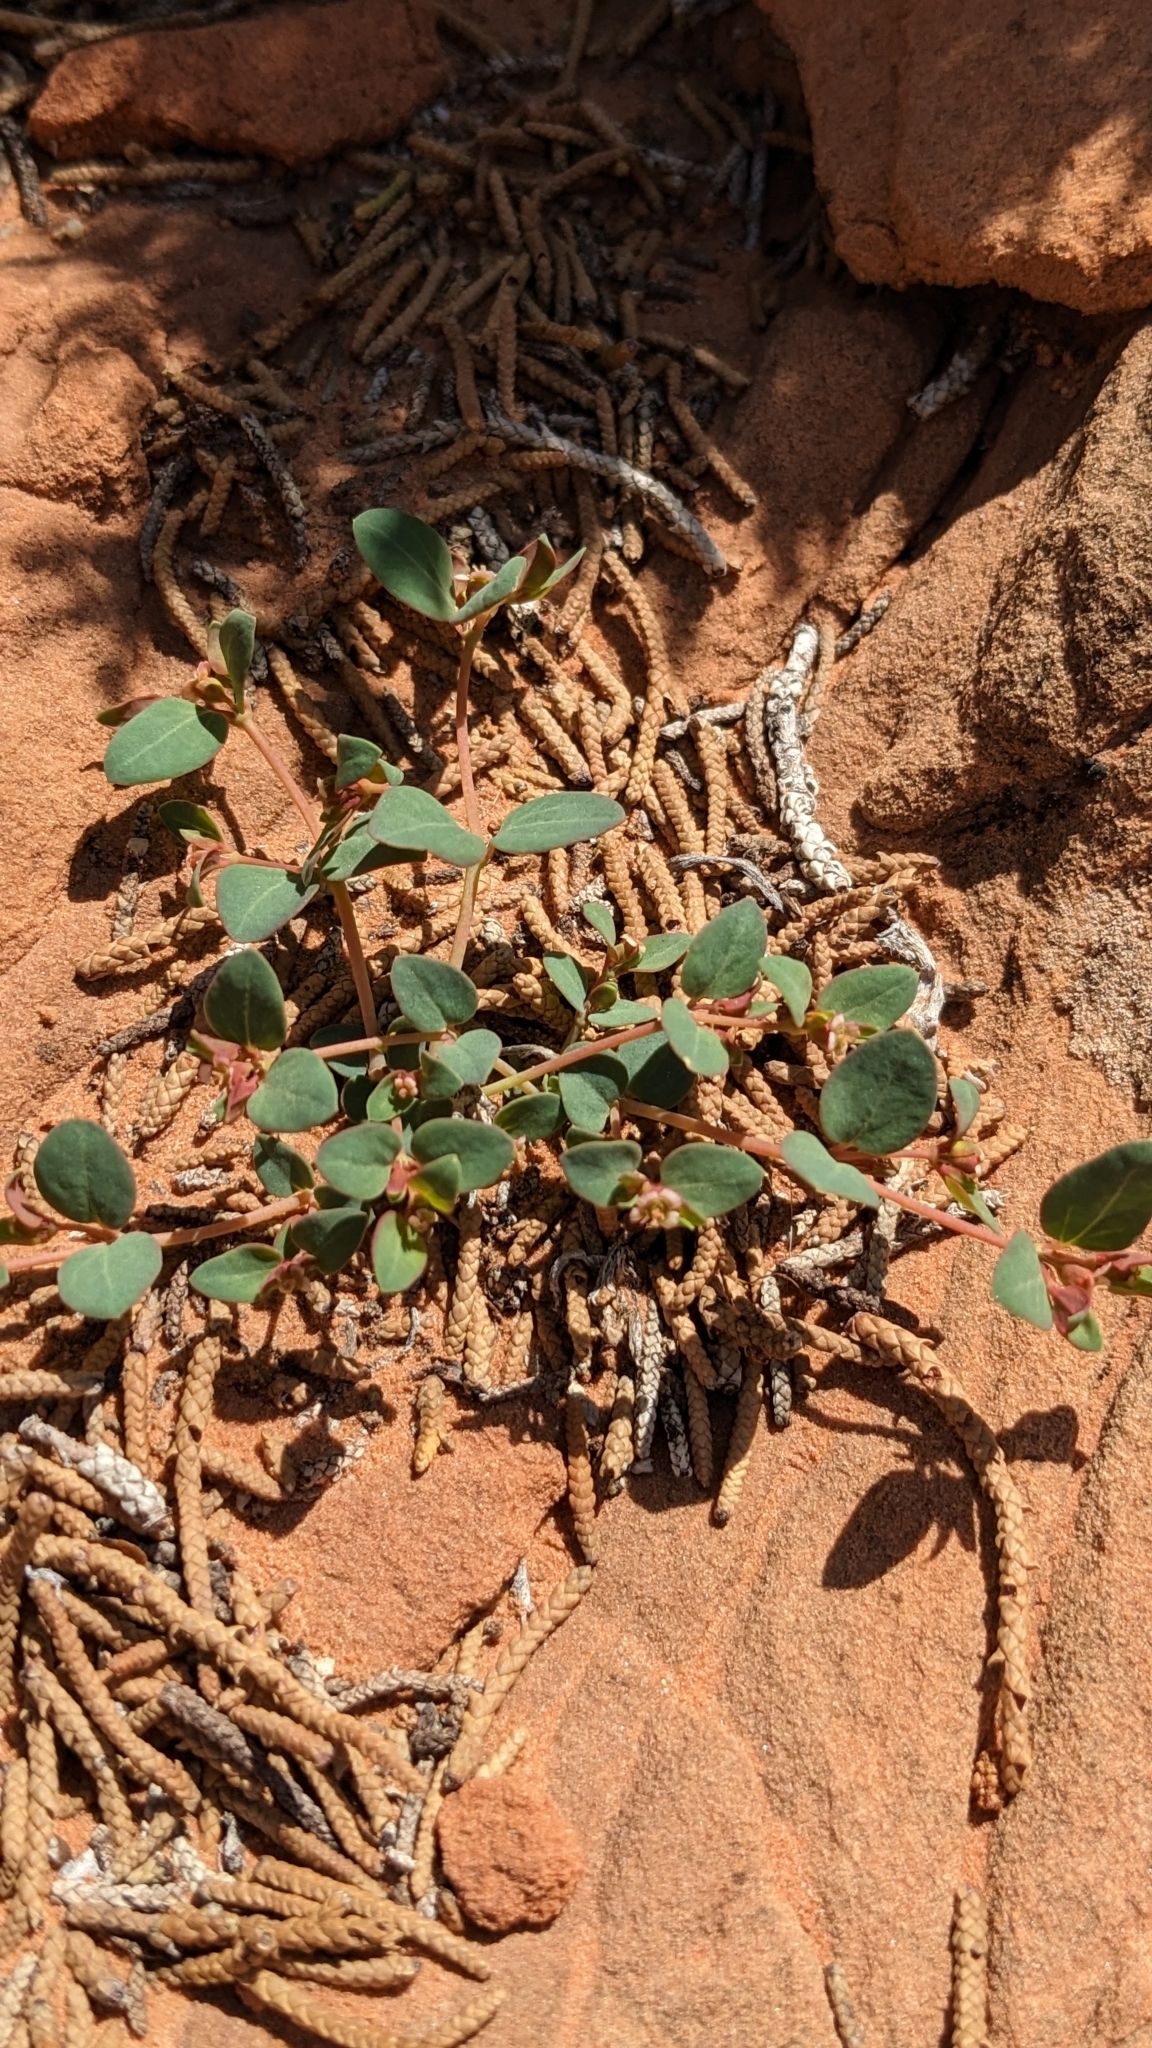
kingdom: Plantae
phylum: Tracheophyta
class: Magnoliopsida
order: Malpighiales
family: Euphorbiaceae
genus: Euphorbia
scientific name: Euphorbia fendleri
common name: Fendler's euphorbia
